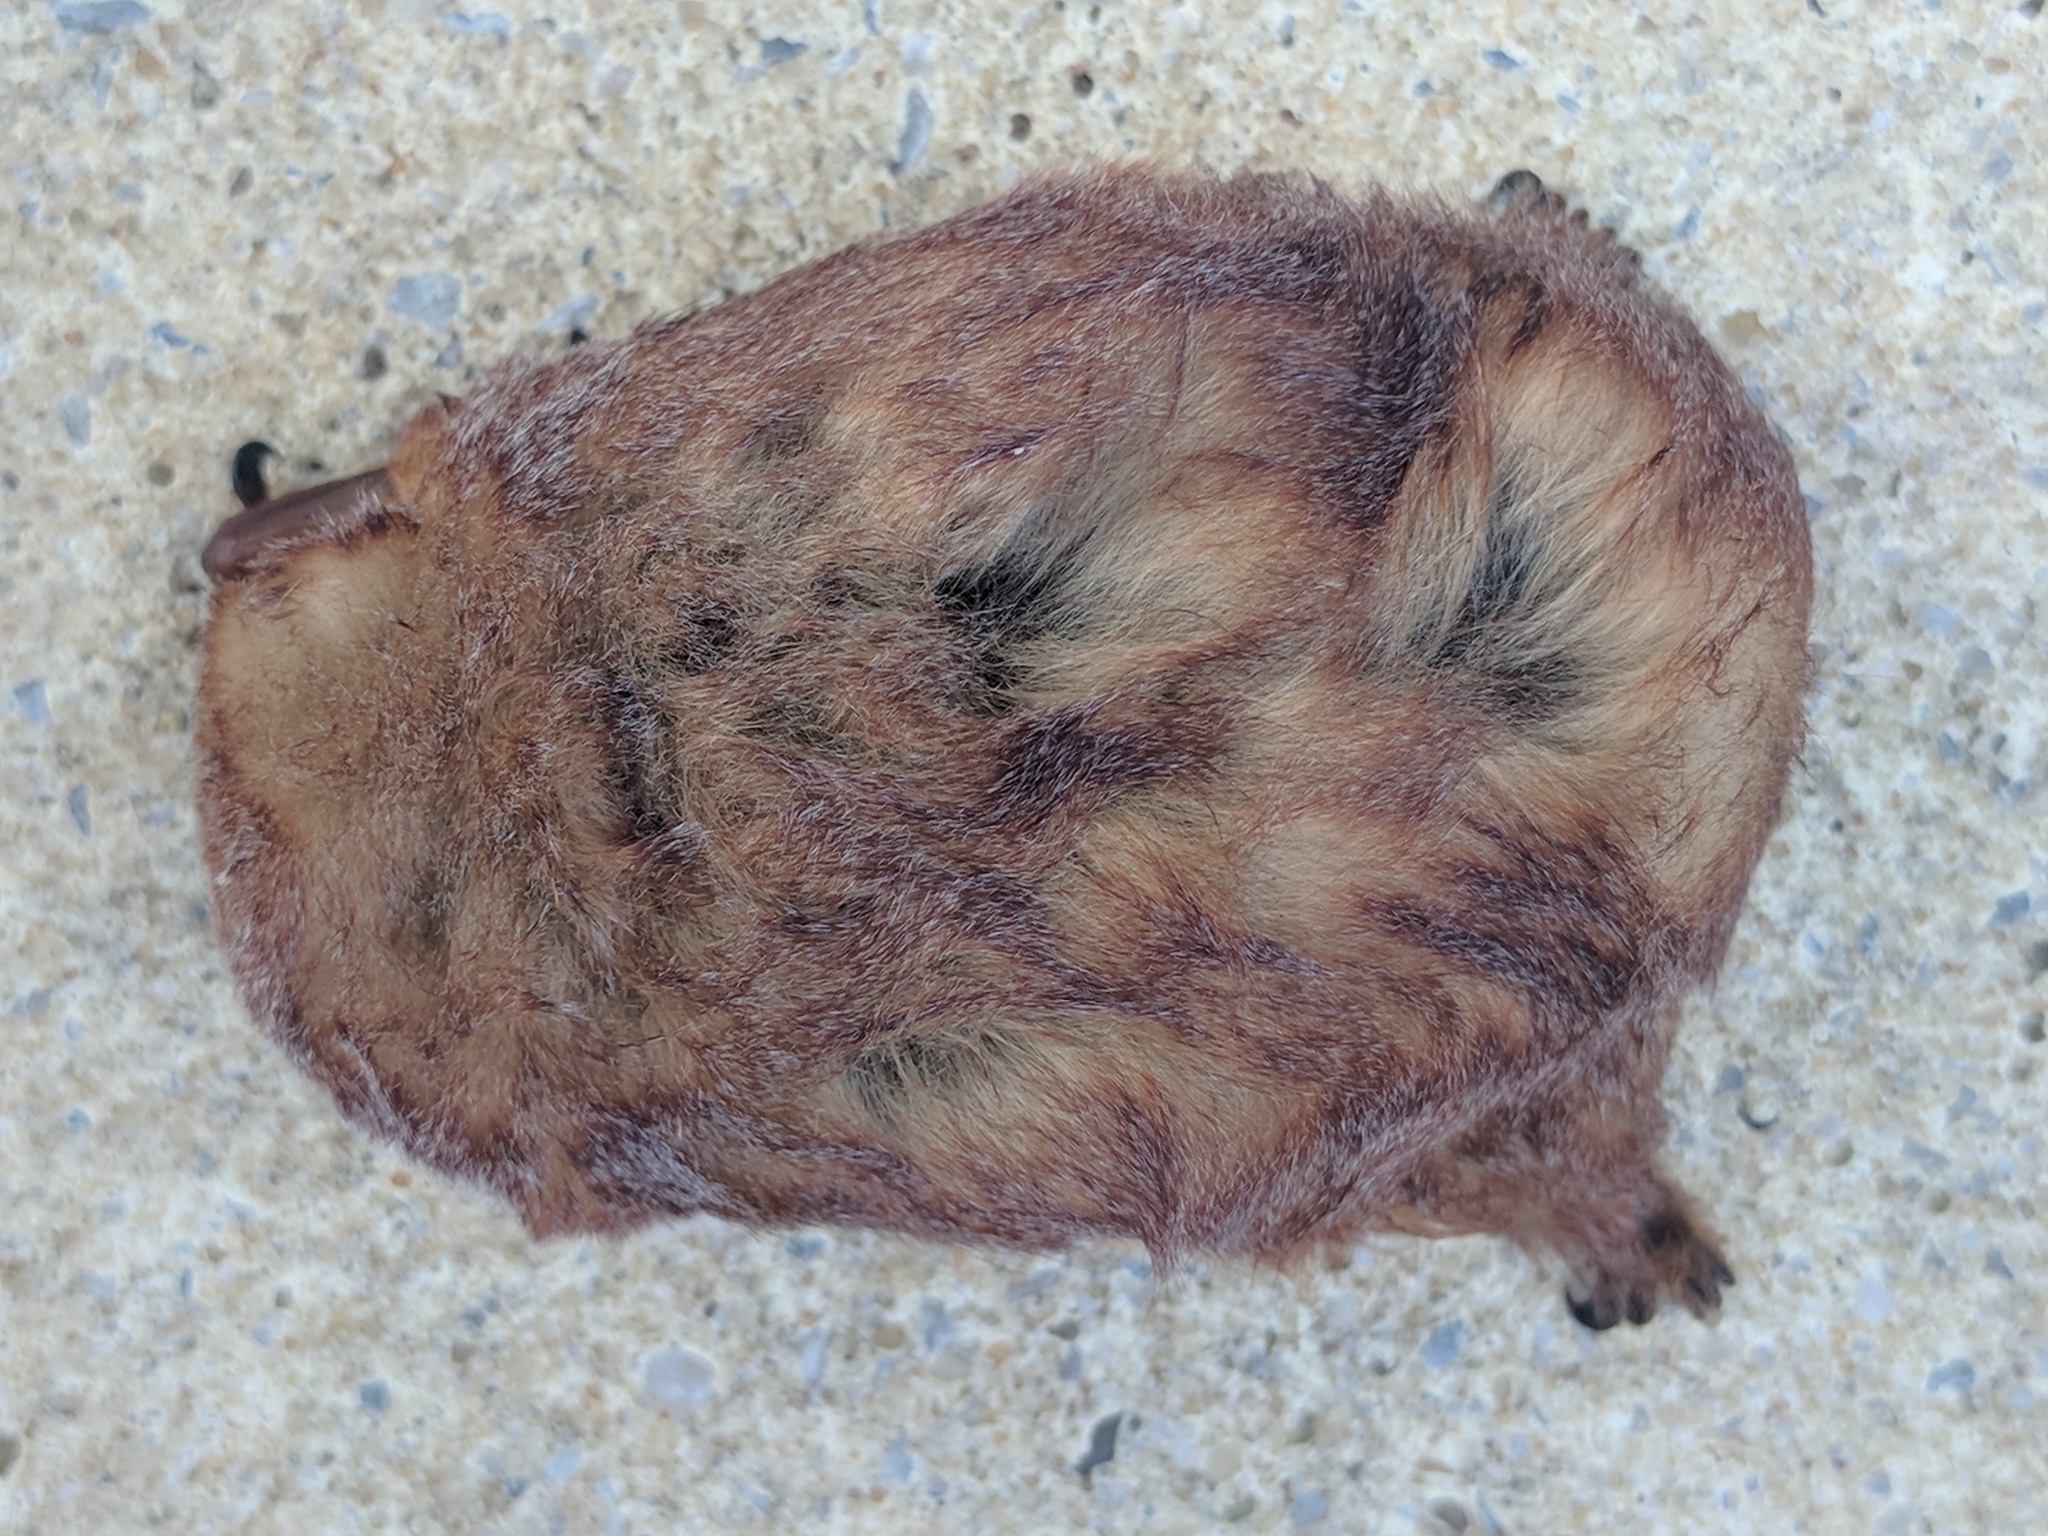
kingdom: Animalia
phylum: Chordata
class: Mammalia
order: Chiroptera
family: Vespertilionidae
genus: Lasiurus
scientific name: Lasiurus borealis
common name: Eastern red bat
